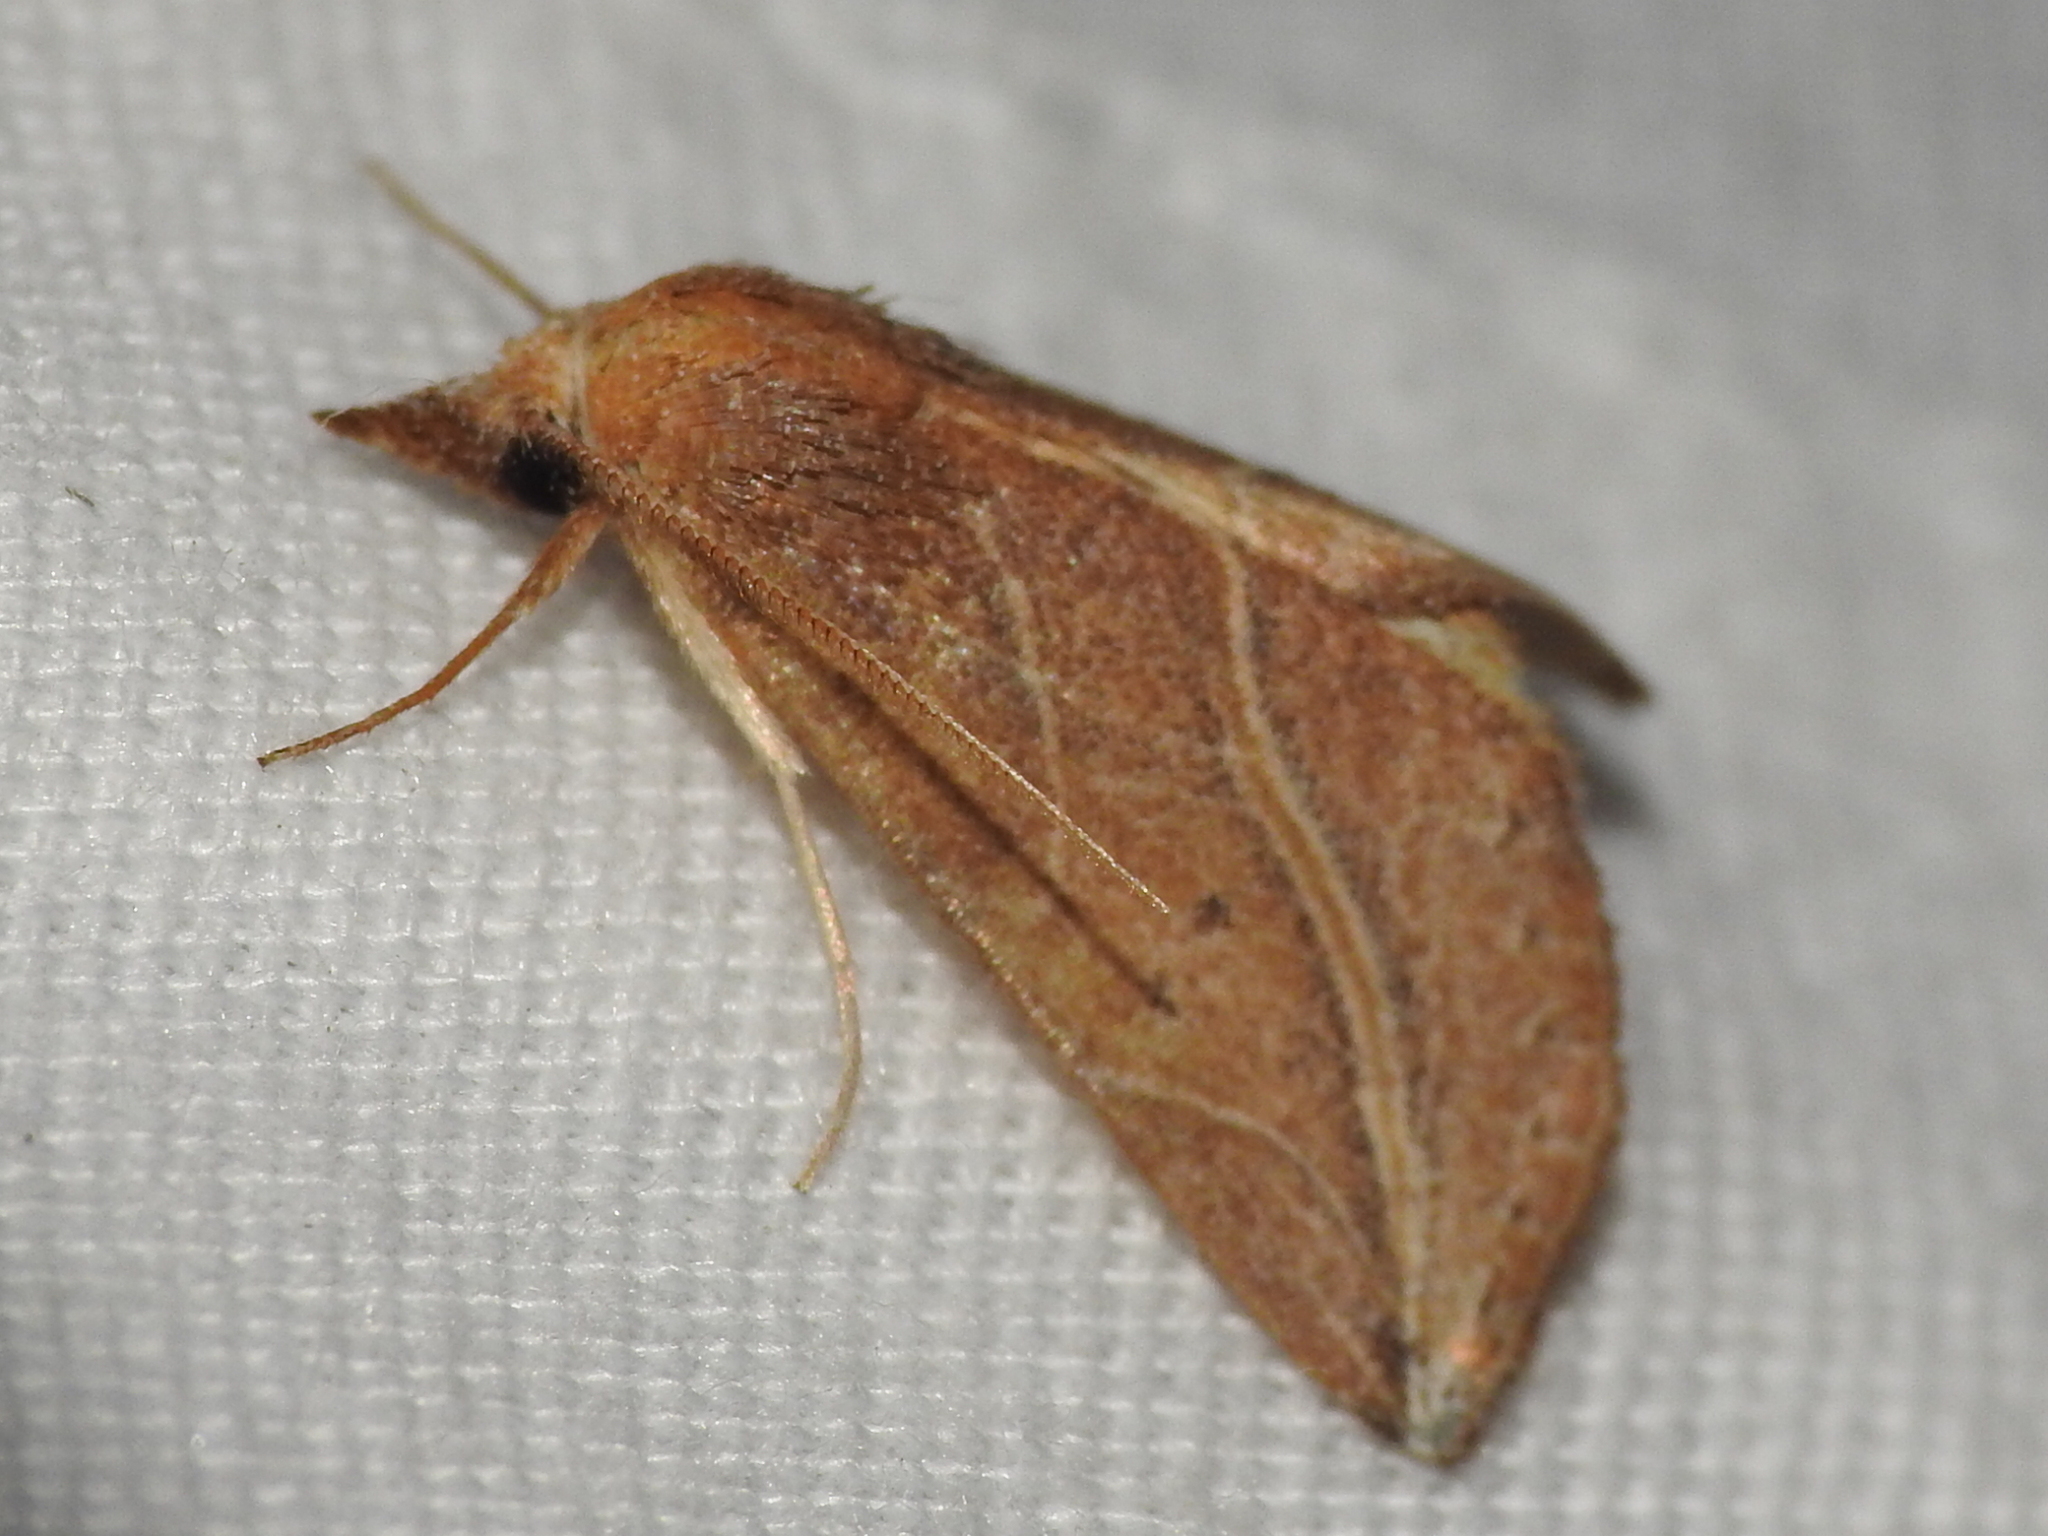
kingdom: Animalia
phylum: Arthropoda
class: Insecta
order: Lepidoptera
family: Erebidae
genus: Phyprosopus
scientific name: Phyprosopus callitrichoides
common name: Curved-lined owlet
